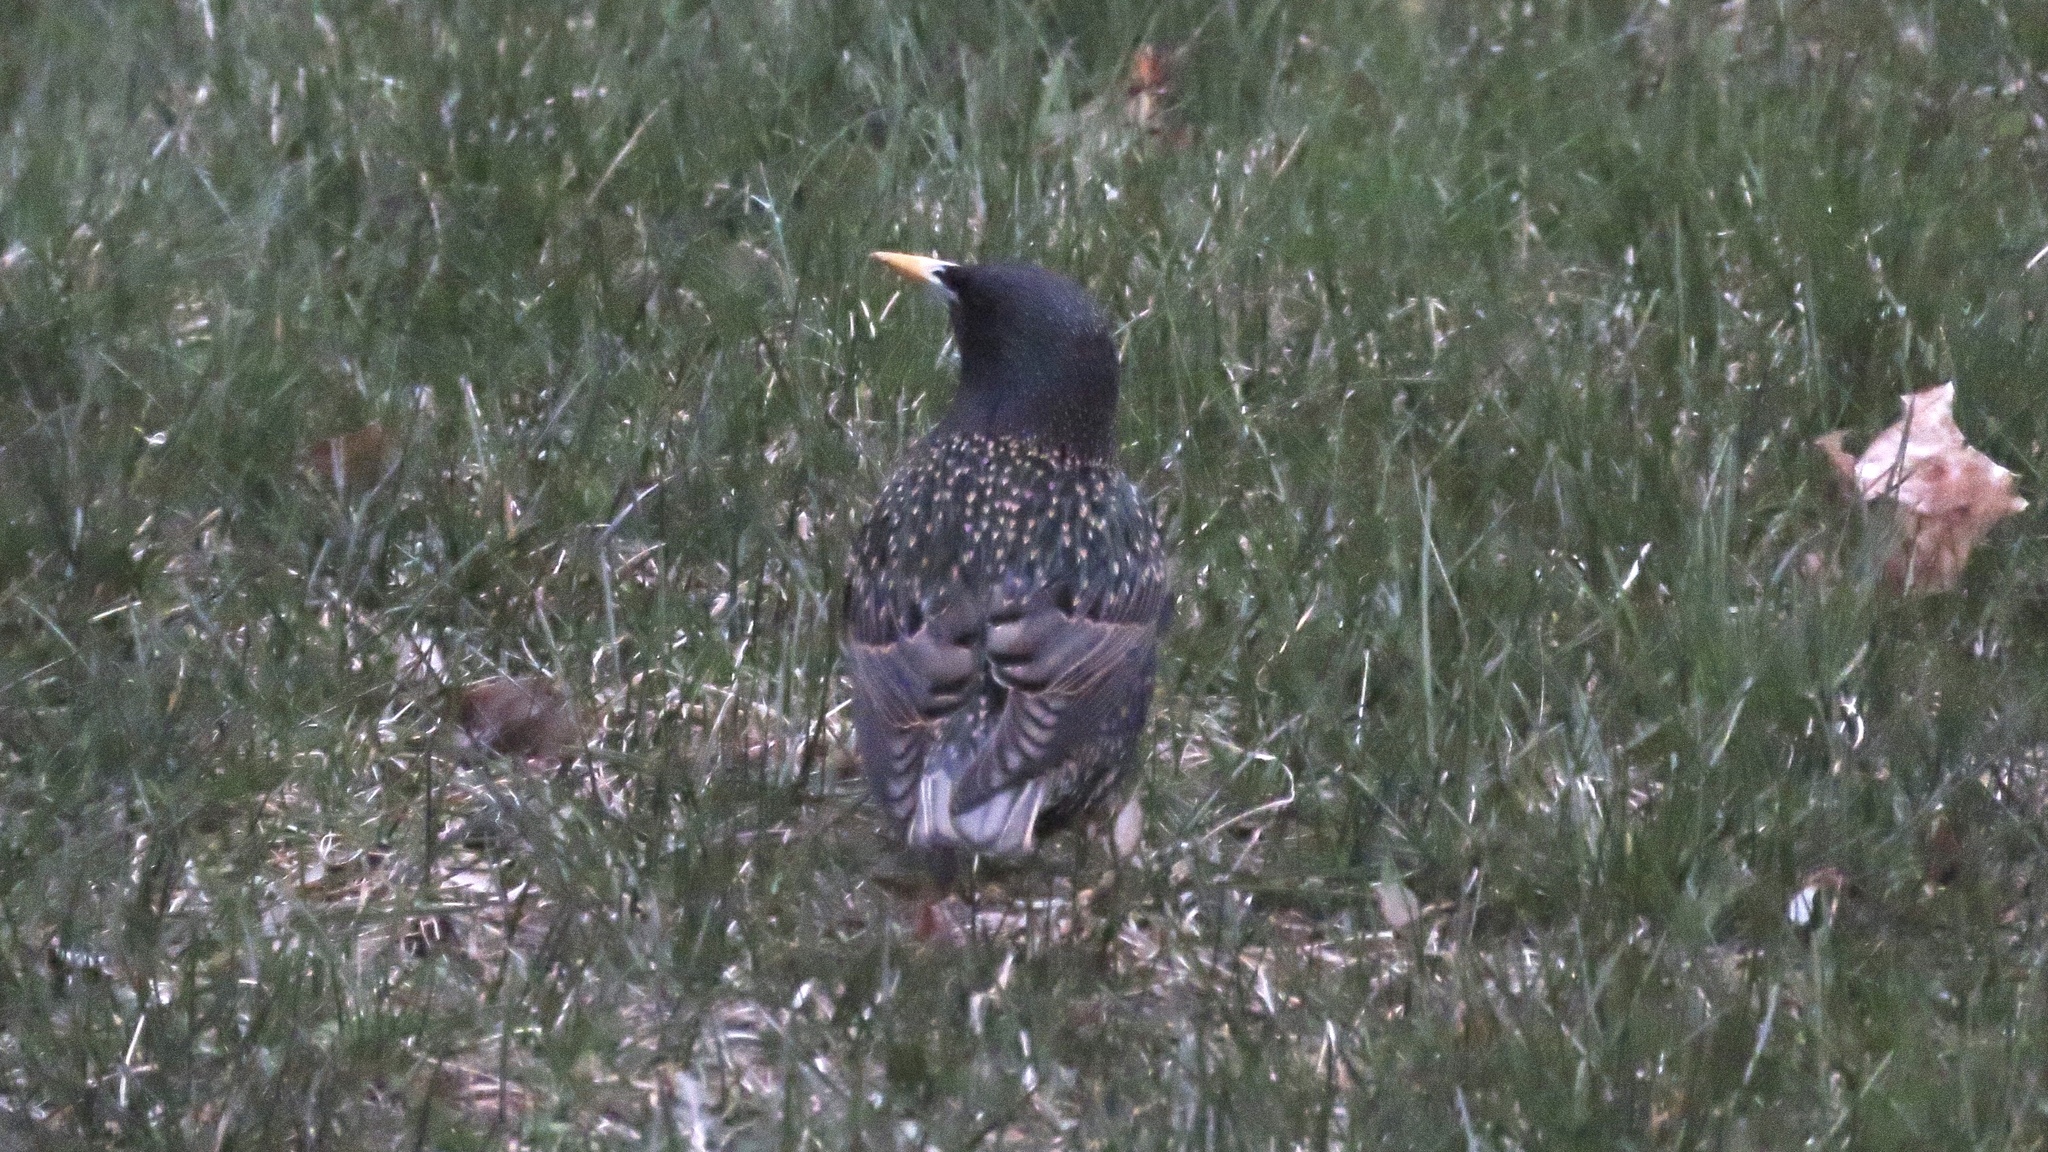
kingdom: Animalia
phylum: Chordata
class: Aves
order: Passeriformes
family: Sturnidae
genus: Sturnus
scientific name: Sturnus vulgaris
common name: Common starling
